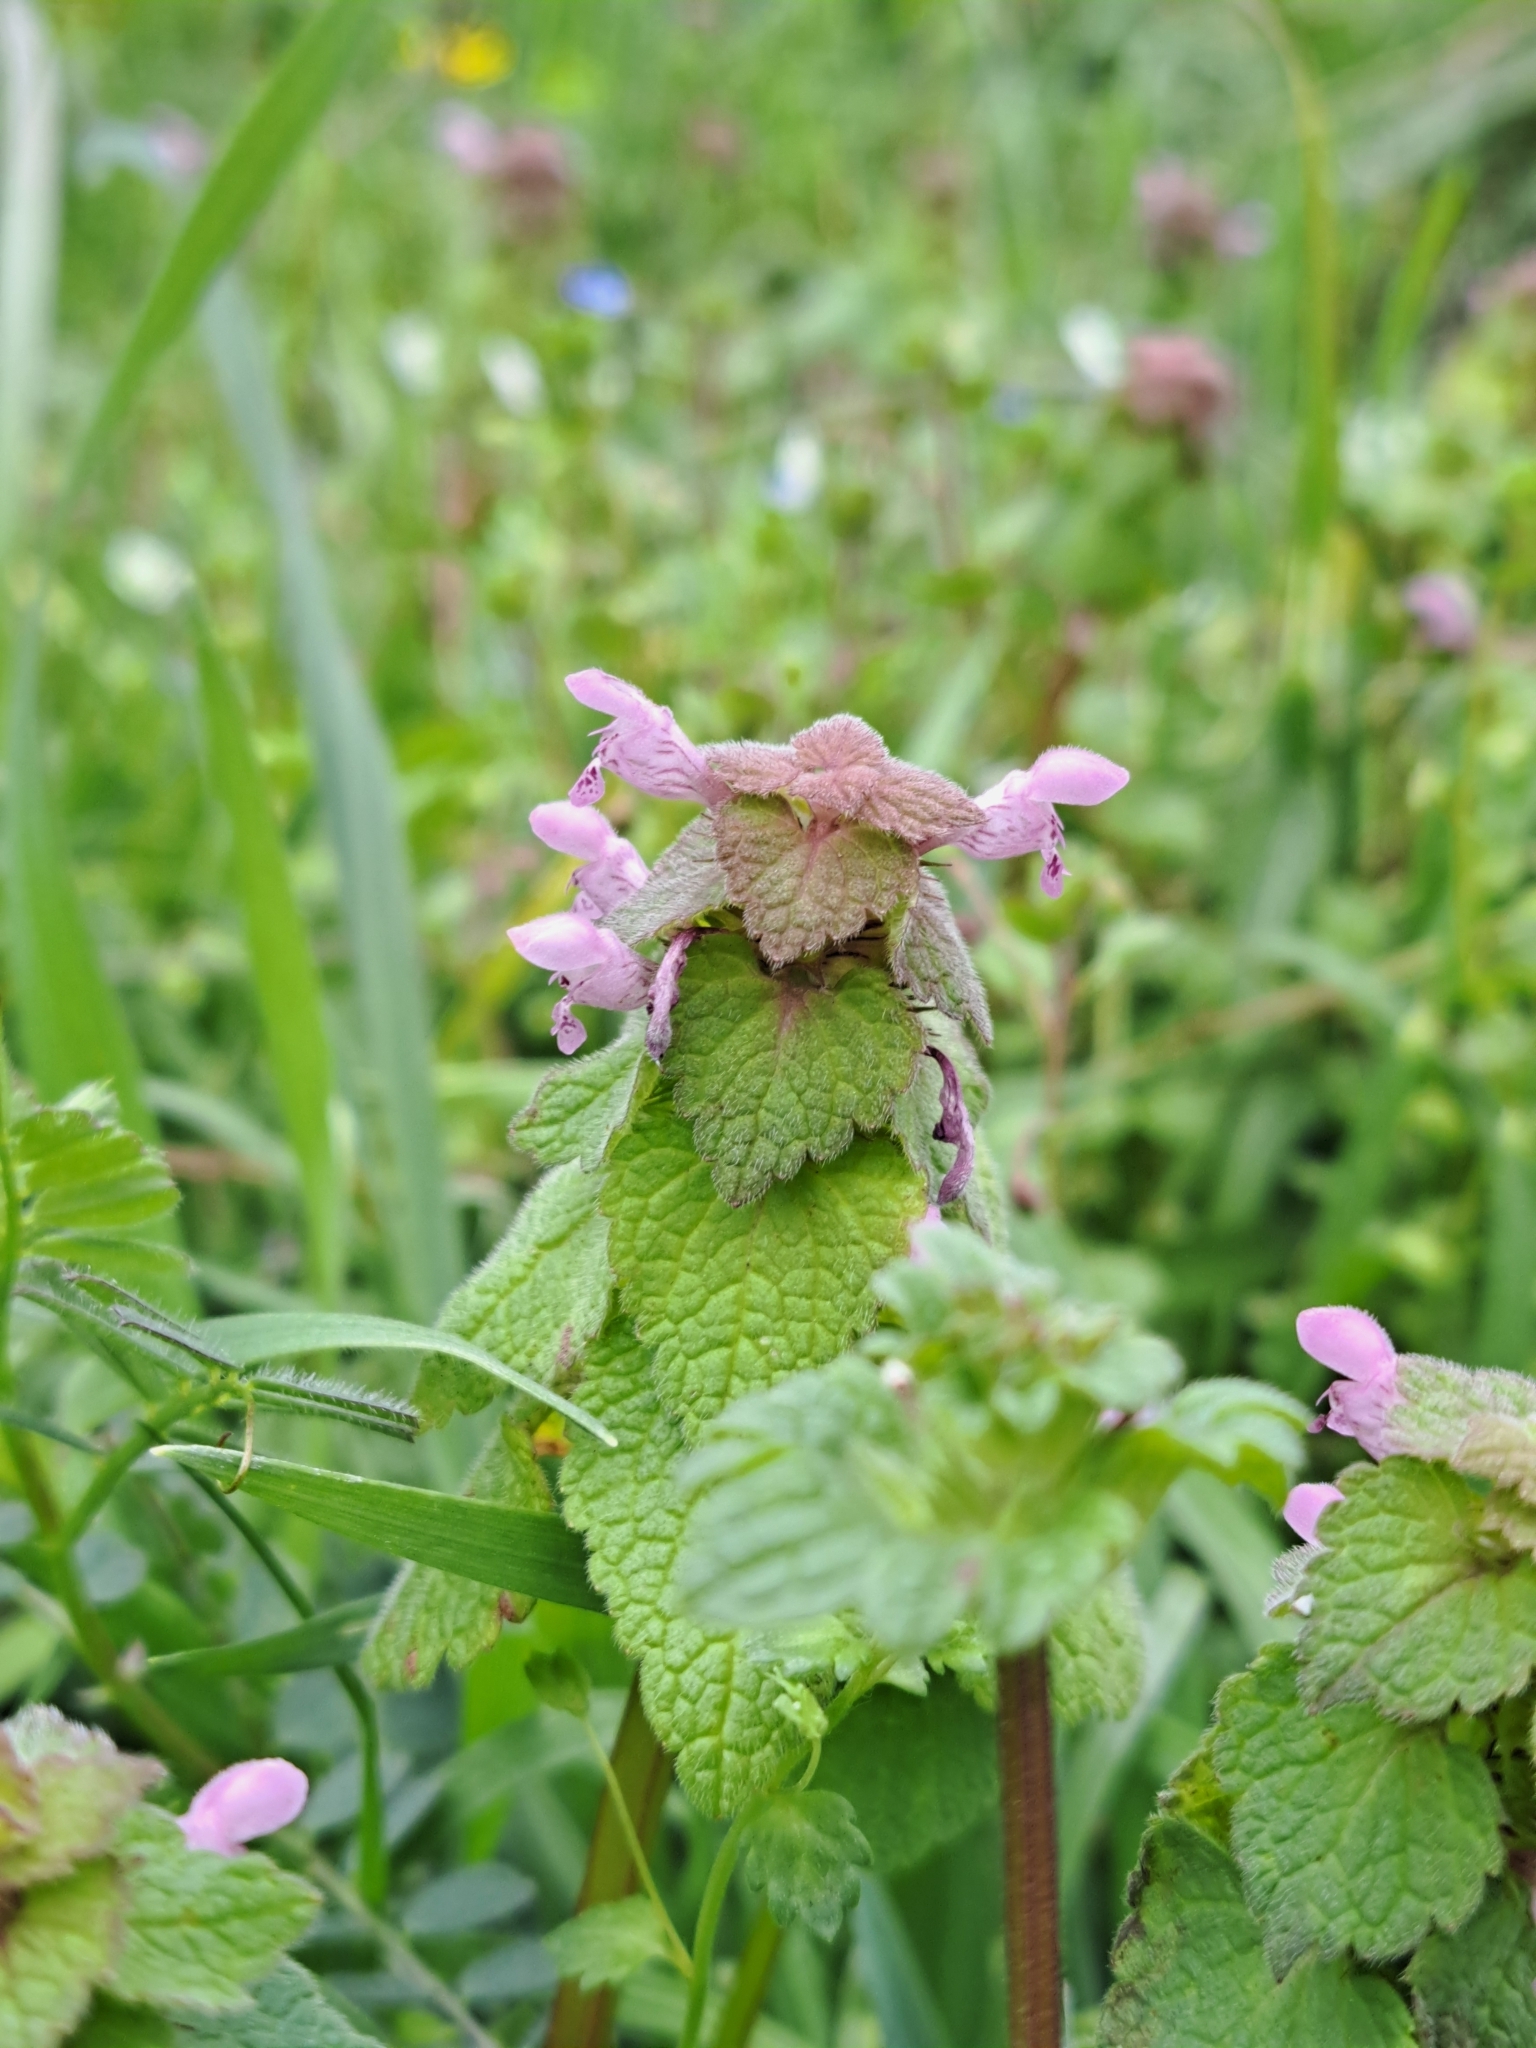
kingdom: Plantae
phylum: Tracheophyta
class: Magnoliopsida
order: Lamiales
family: Lamiaceae
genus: Lamium
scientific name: Lamium purpureum
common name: Red dead-nettle
